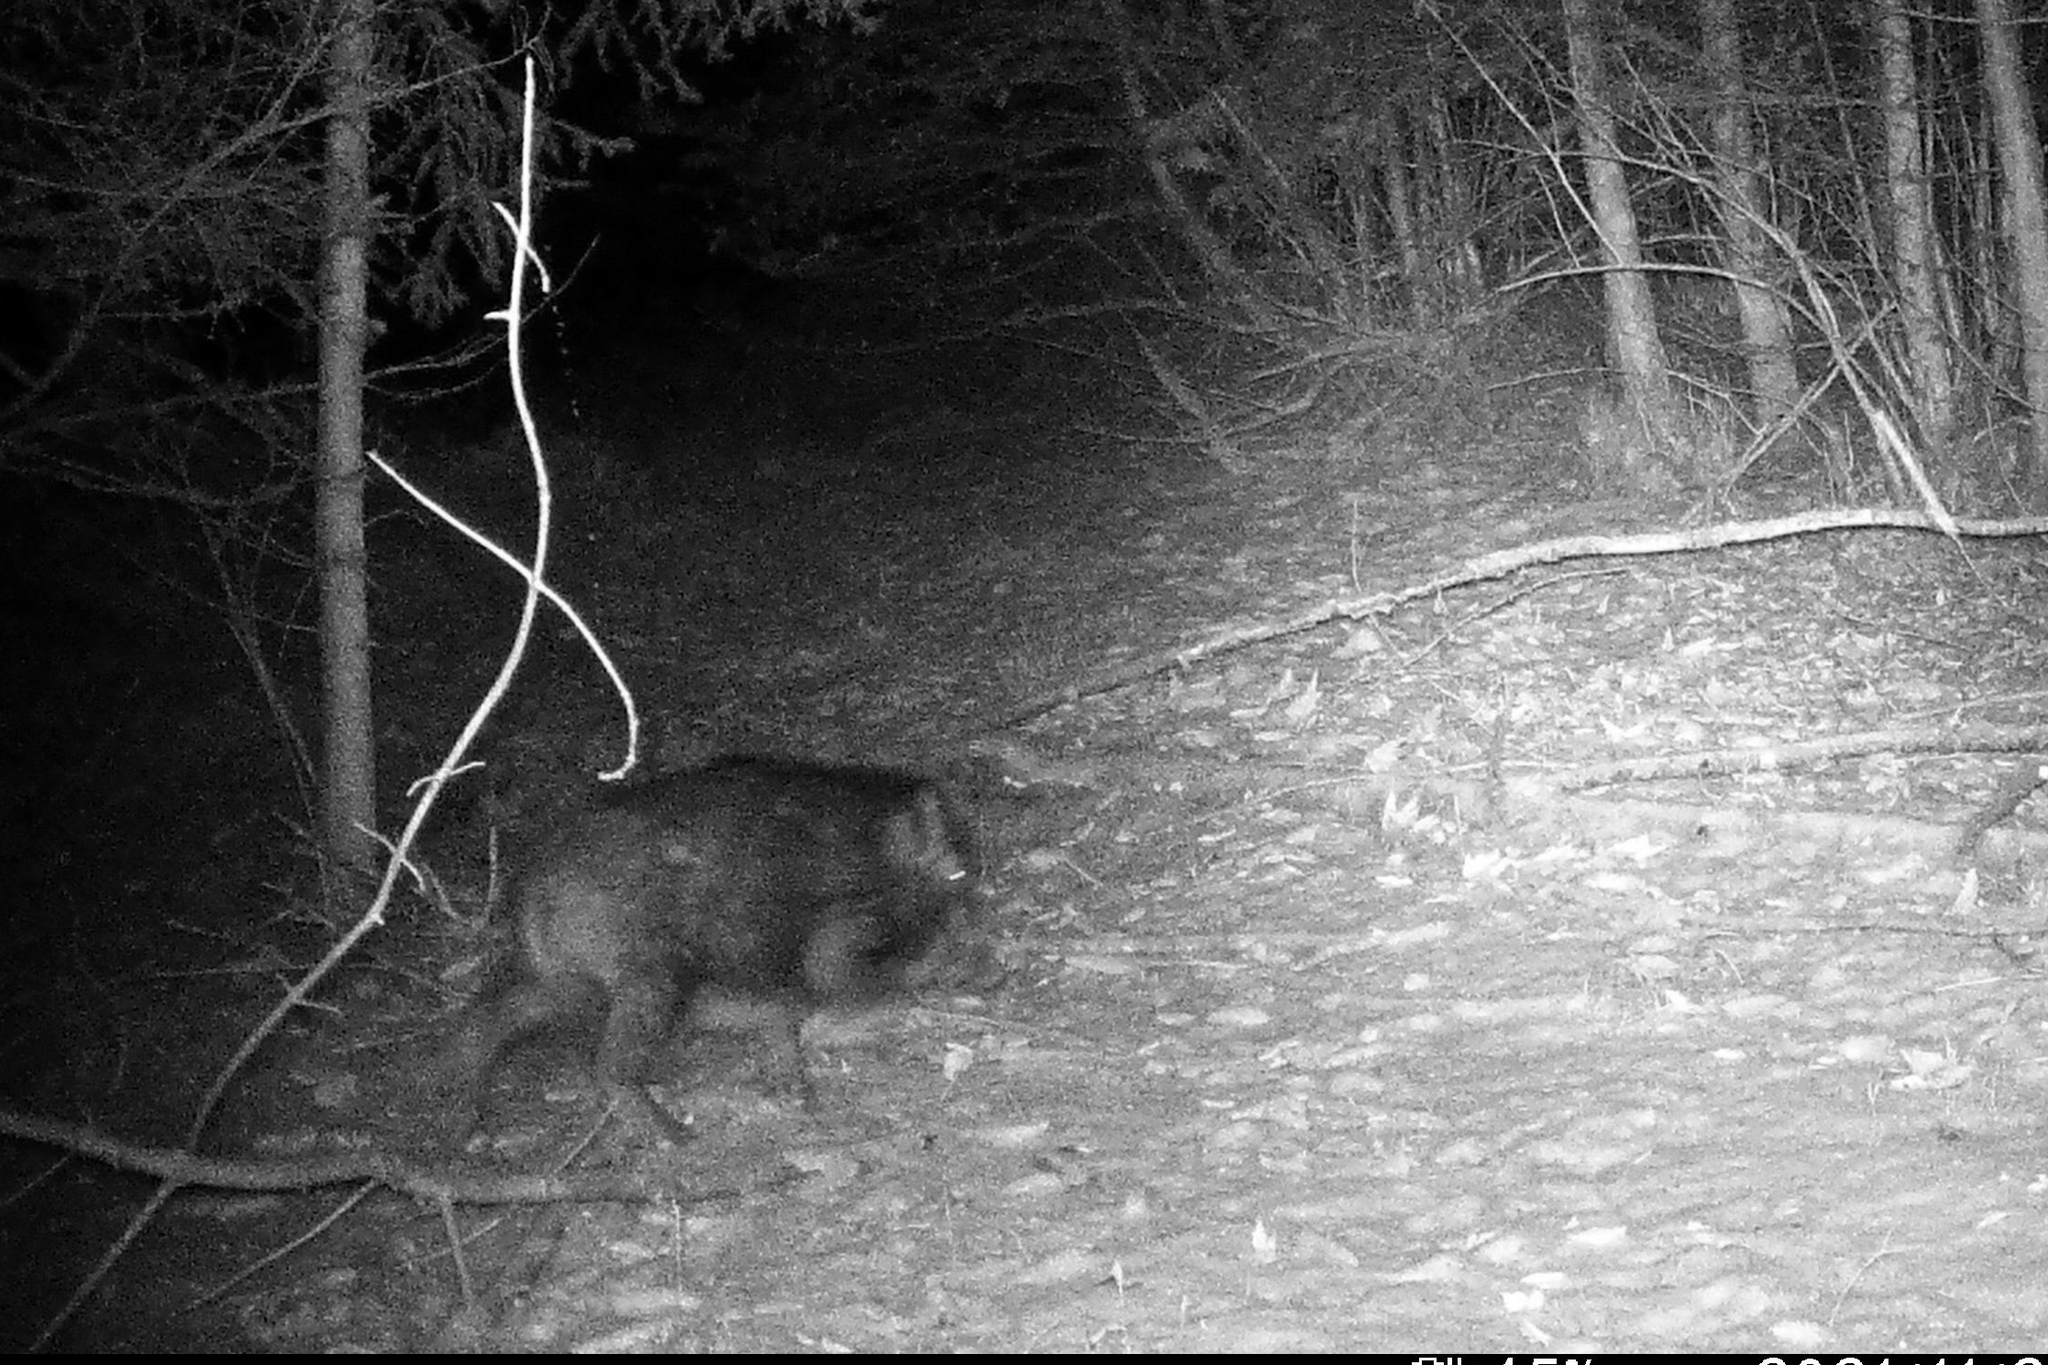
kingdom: Animalia
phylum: Chordata
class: Mammalia
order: Artiodactyla
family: Suidae
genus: Sus
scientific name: Sus scrofa
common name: Wild boar
